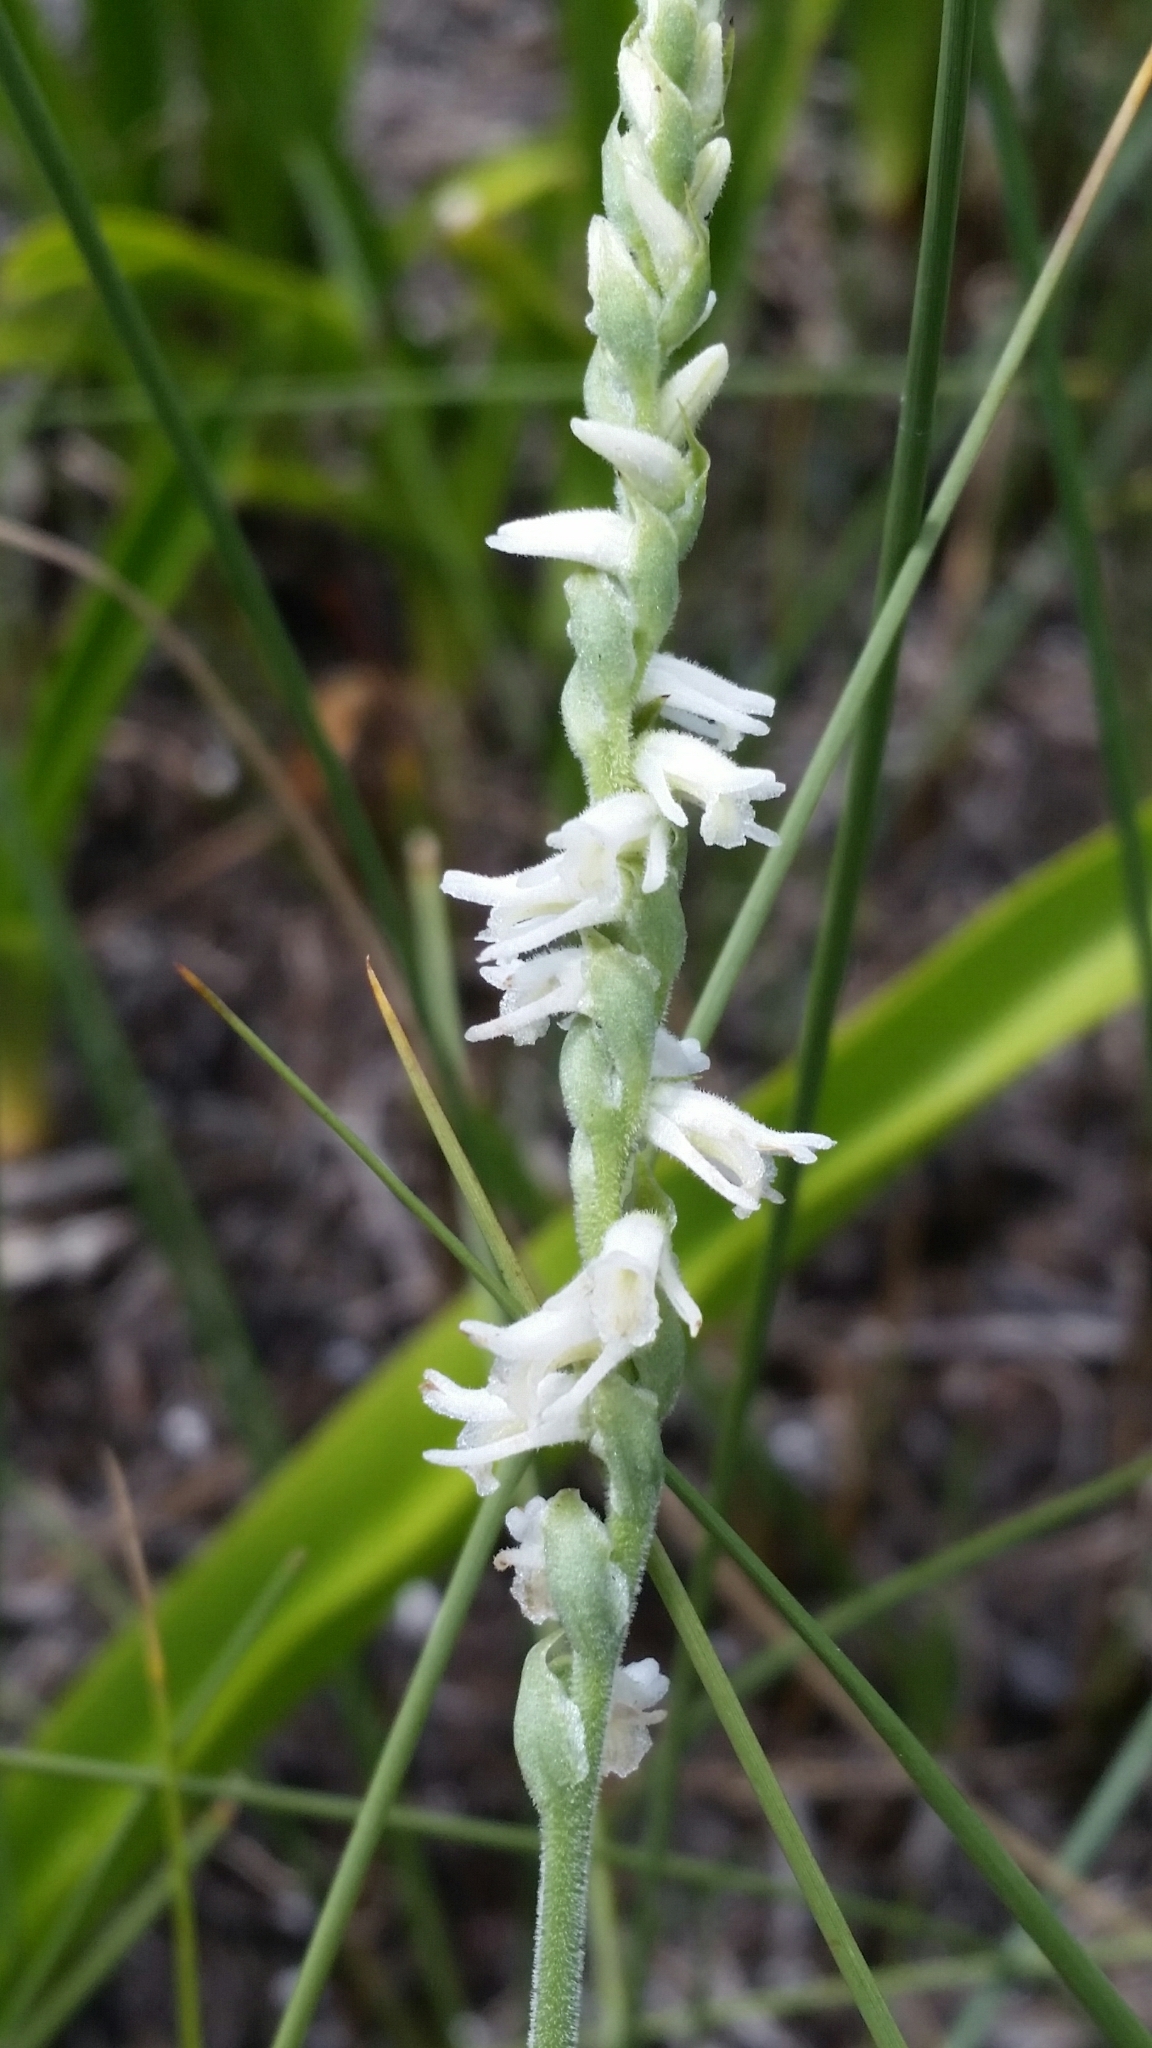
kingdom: Plantae
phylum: Tracheophyta
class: Liliopsida
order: Asparagales
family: Orchidaceae
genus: Spiranthes
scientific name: Spiranthes vernalis
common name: Spring ladies'-tresses
